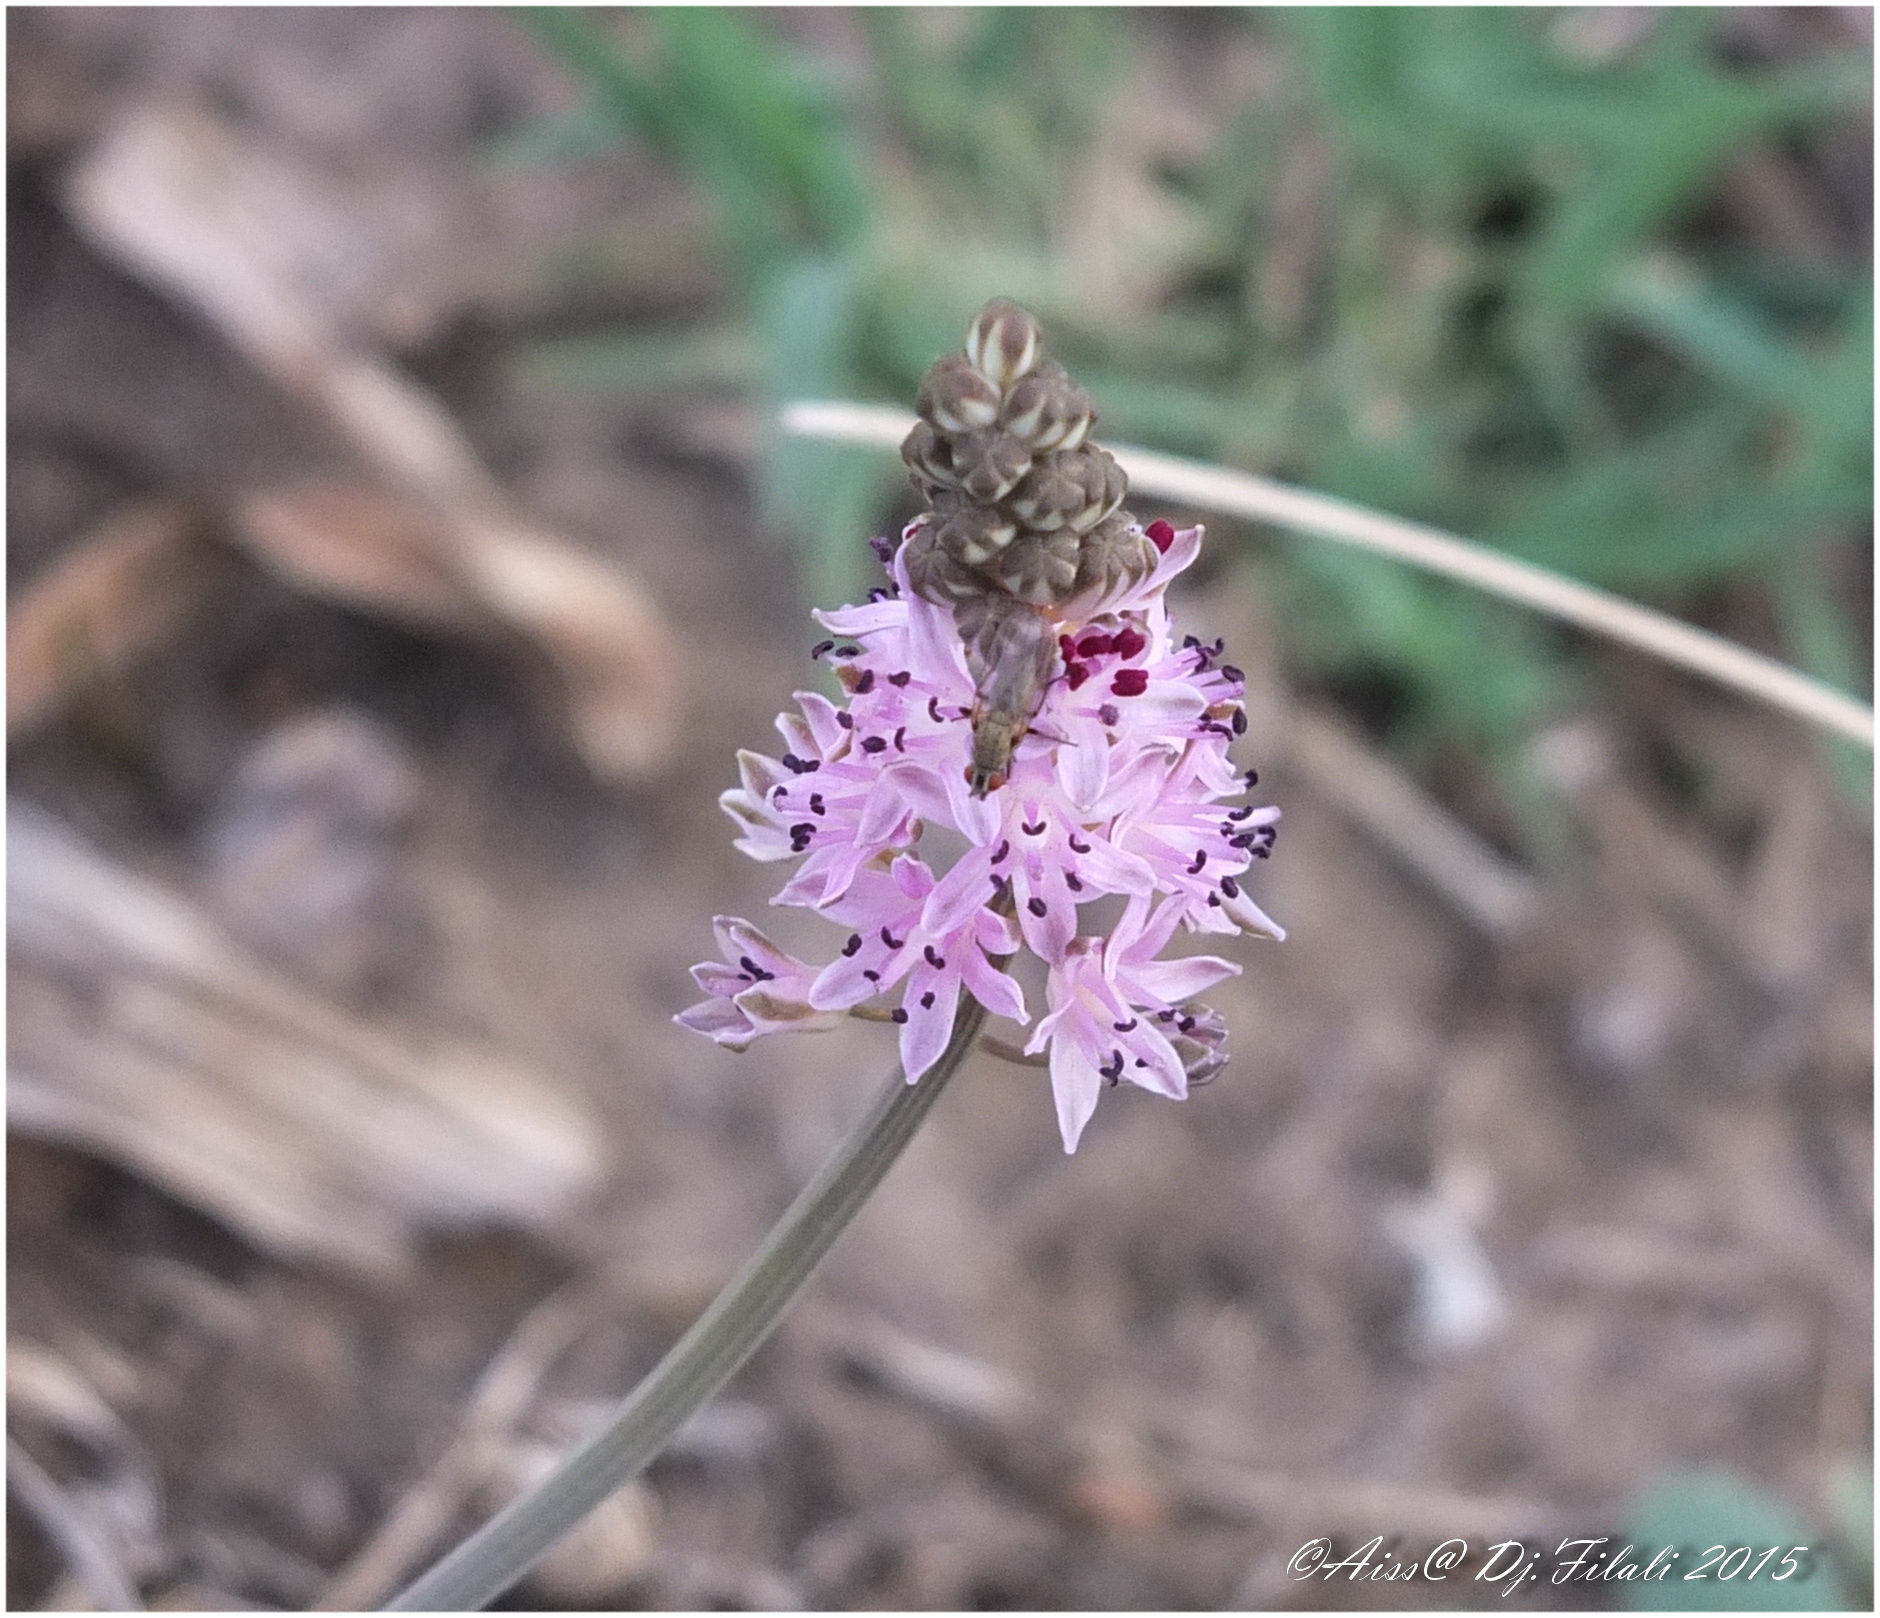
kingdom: Plantae
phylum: Tracheophyta
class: Liliopsida
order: Asparagales
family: Asparagaceae
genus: Prospero
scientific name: Prospero obtusifolium
